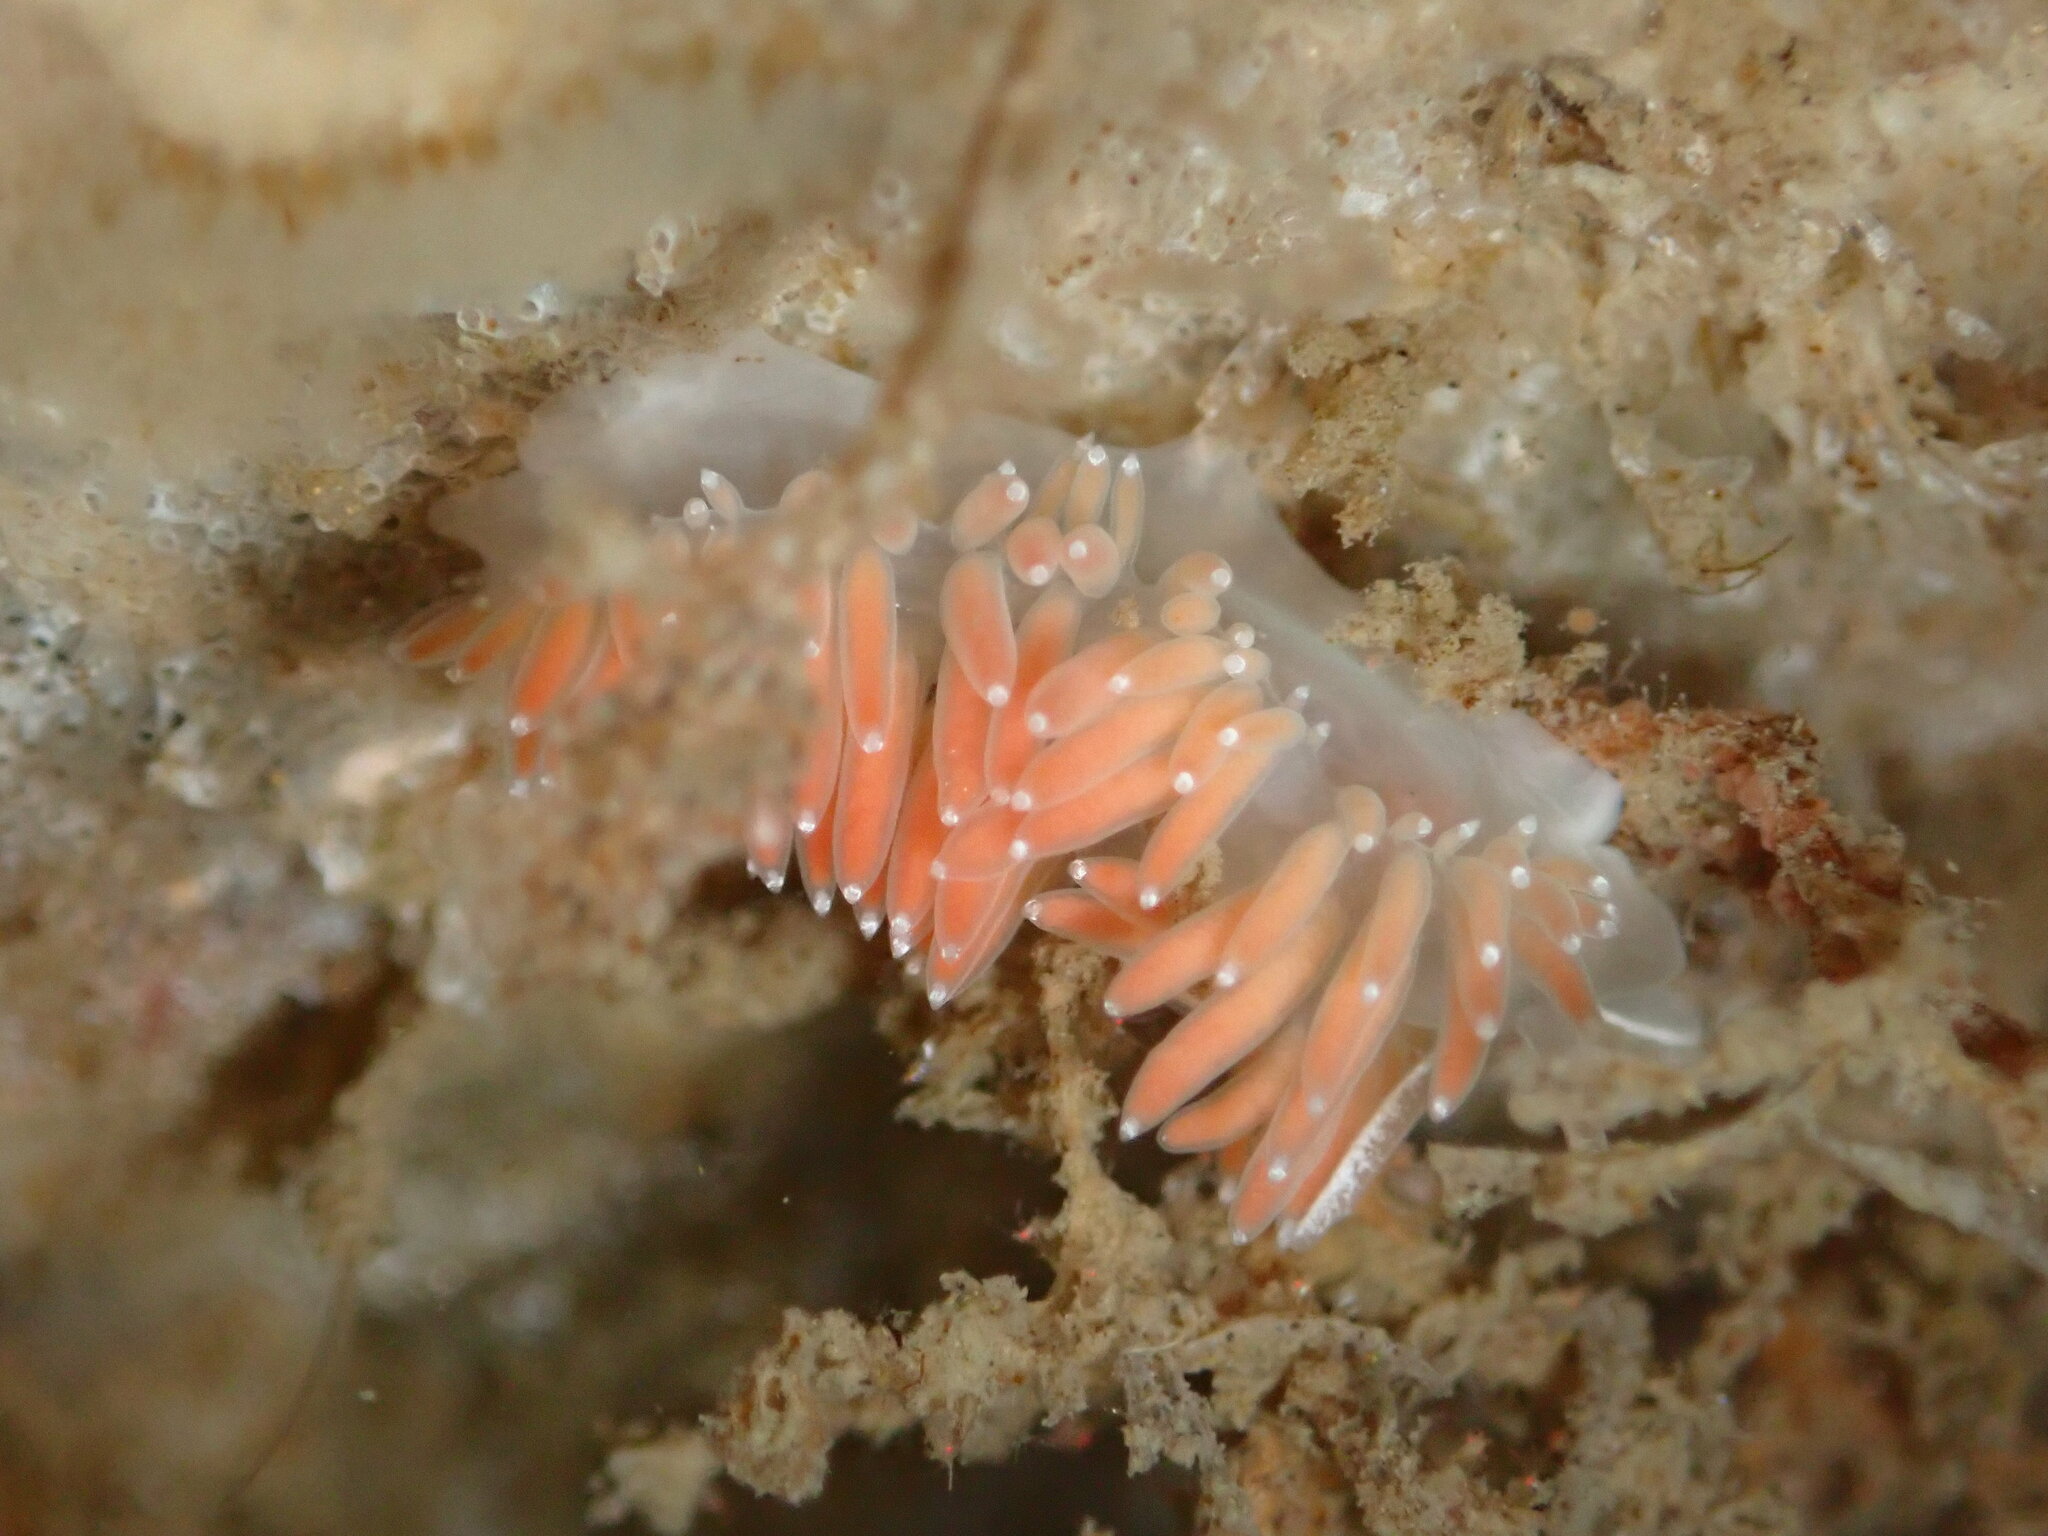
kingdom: Animalia
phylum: Mollusca
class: Gastropoda
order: Nudibranchia
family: Coryphellidae
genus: Coryphella
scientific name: Coryphella verrucosa
